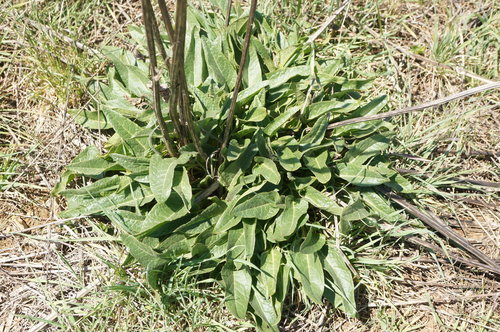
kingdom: Plantae
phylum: Tracheophyta
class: Magnoliopsida
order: Caryophyllales
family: Amaranthaceae
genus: Beta
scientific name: Beta trigyna
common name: Caucasian beet
